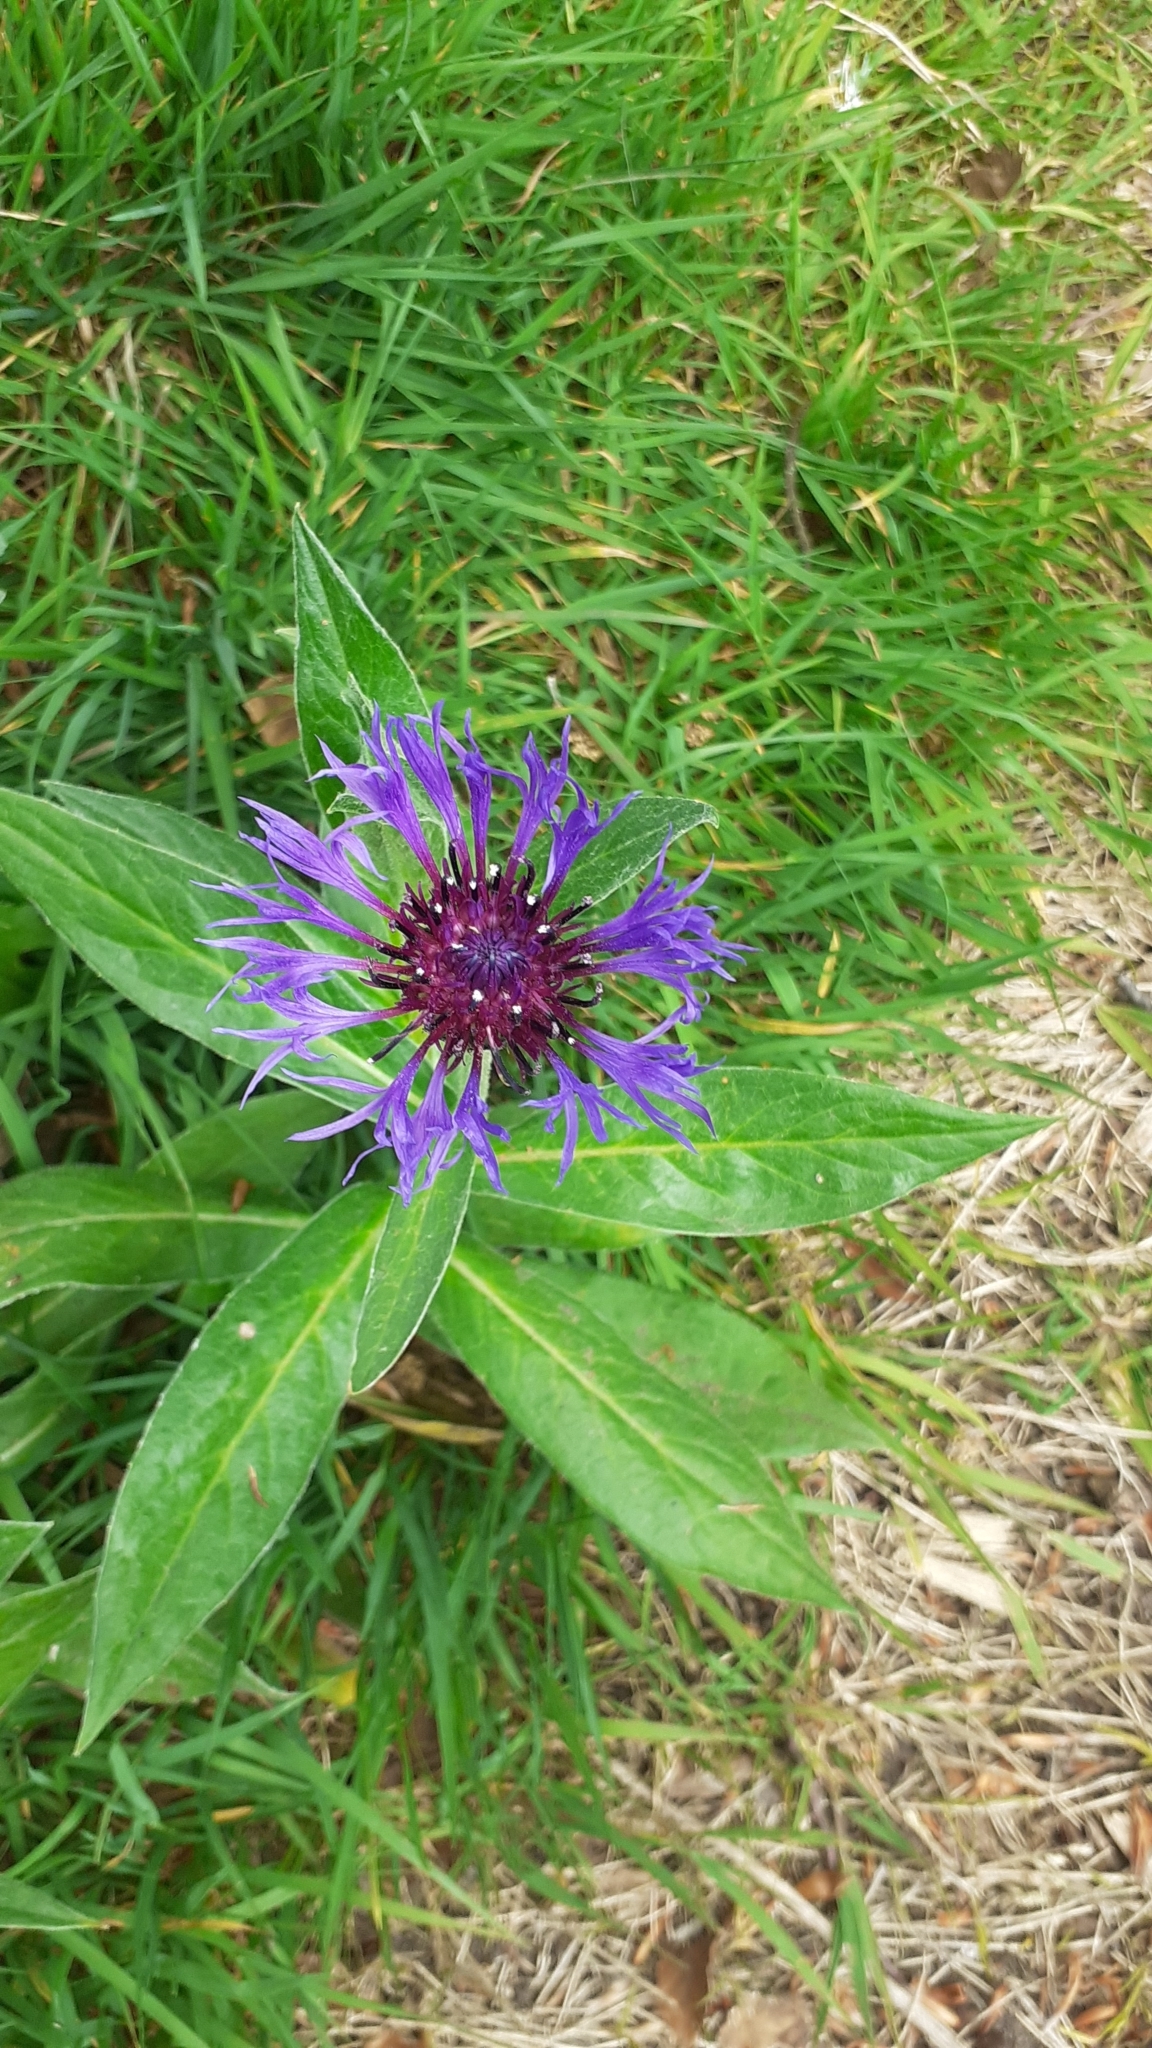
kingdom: Plantae
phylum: Tracheophyta
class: Magnoliopsida
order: Asterales
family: Asteraceae
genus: Centaurea
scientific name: Centaurea montana
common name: Perennial cornflower
